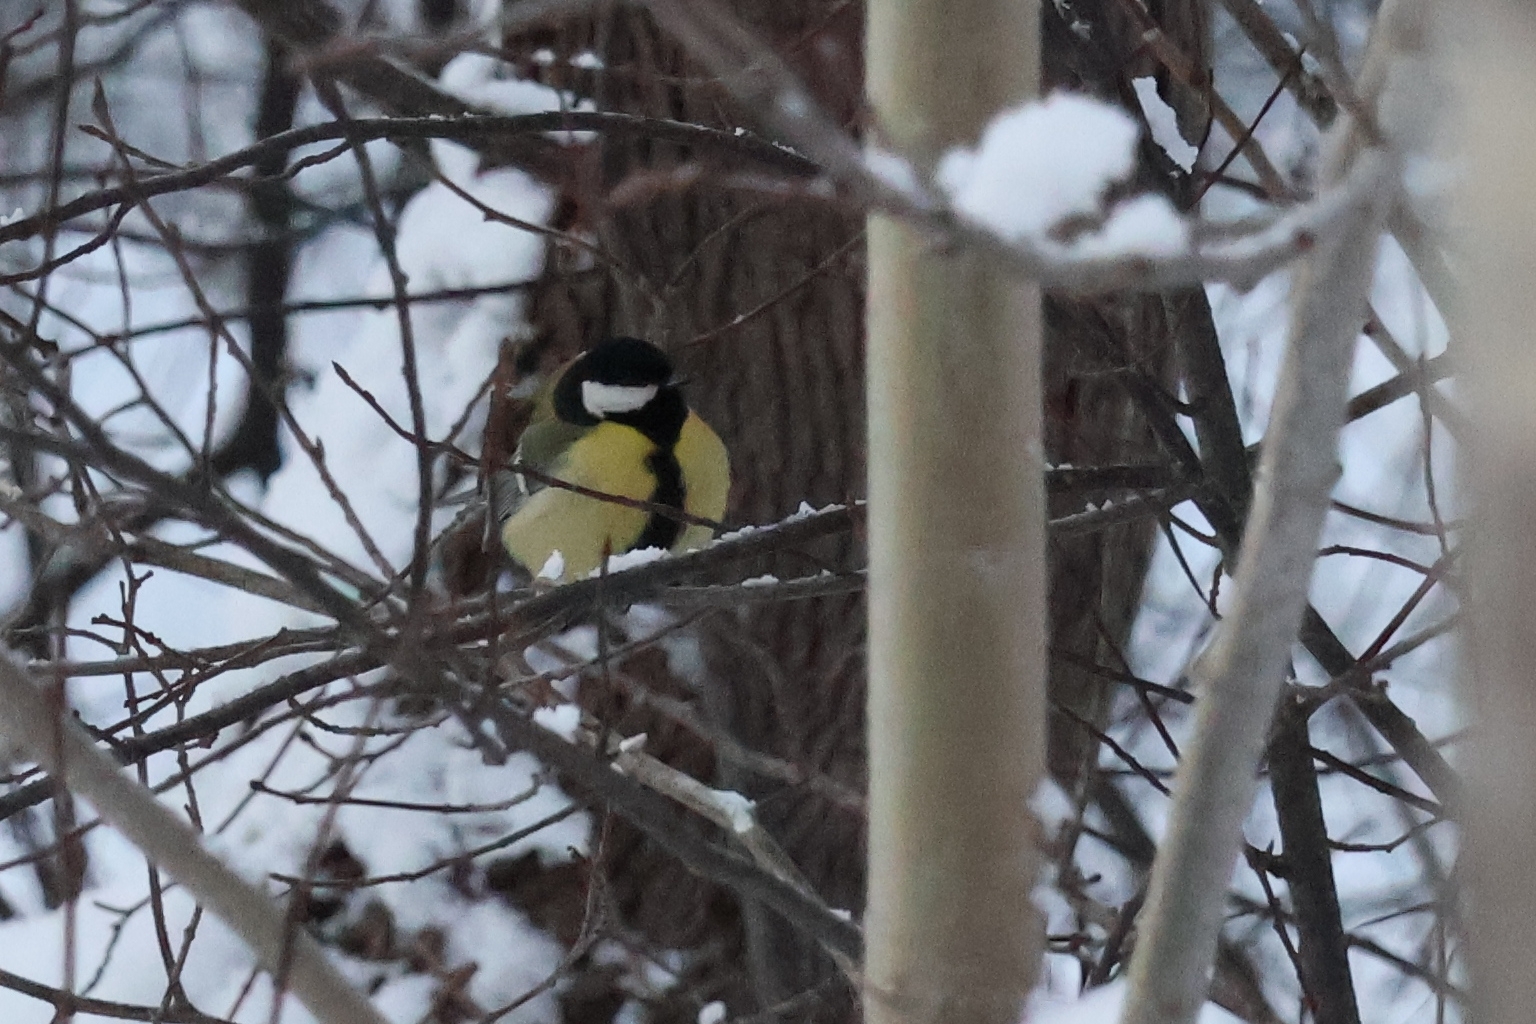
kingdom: Animalia
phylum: Chordata
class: Aves
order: Passeriformes
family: Paridae
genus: Parus
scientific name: Parus major
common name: Great tit
